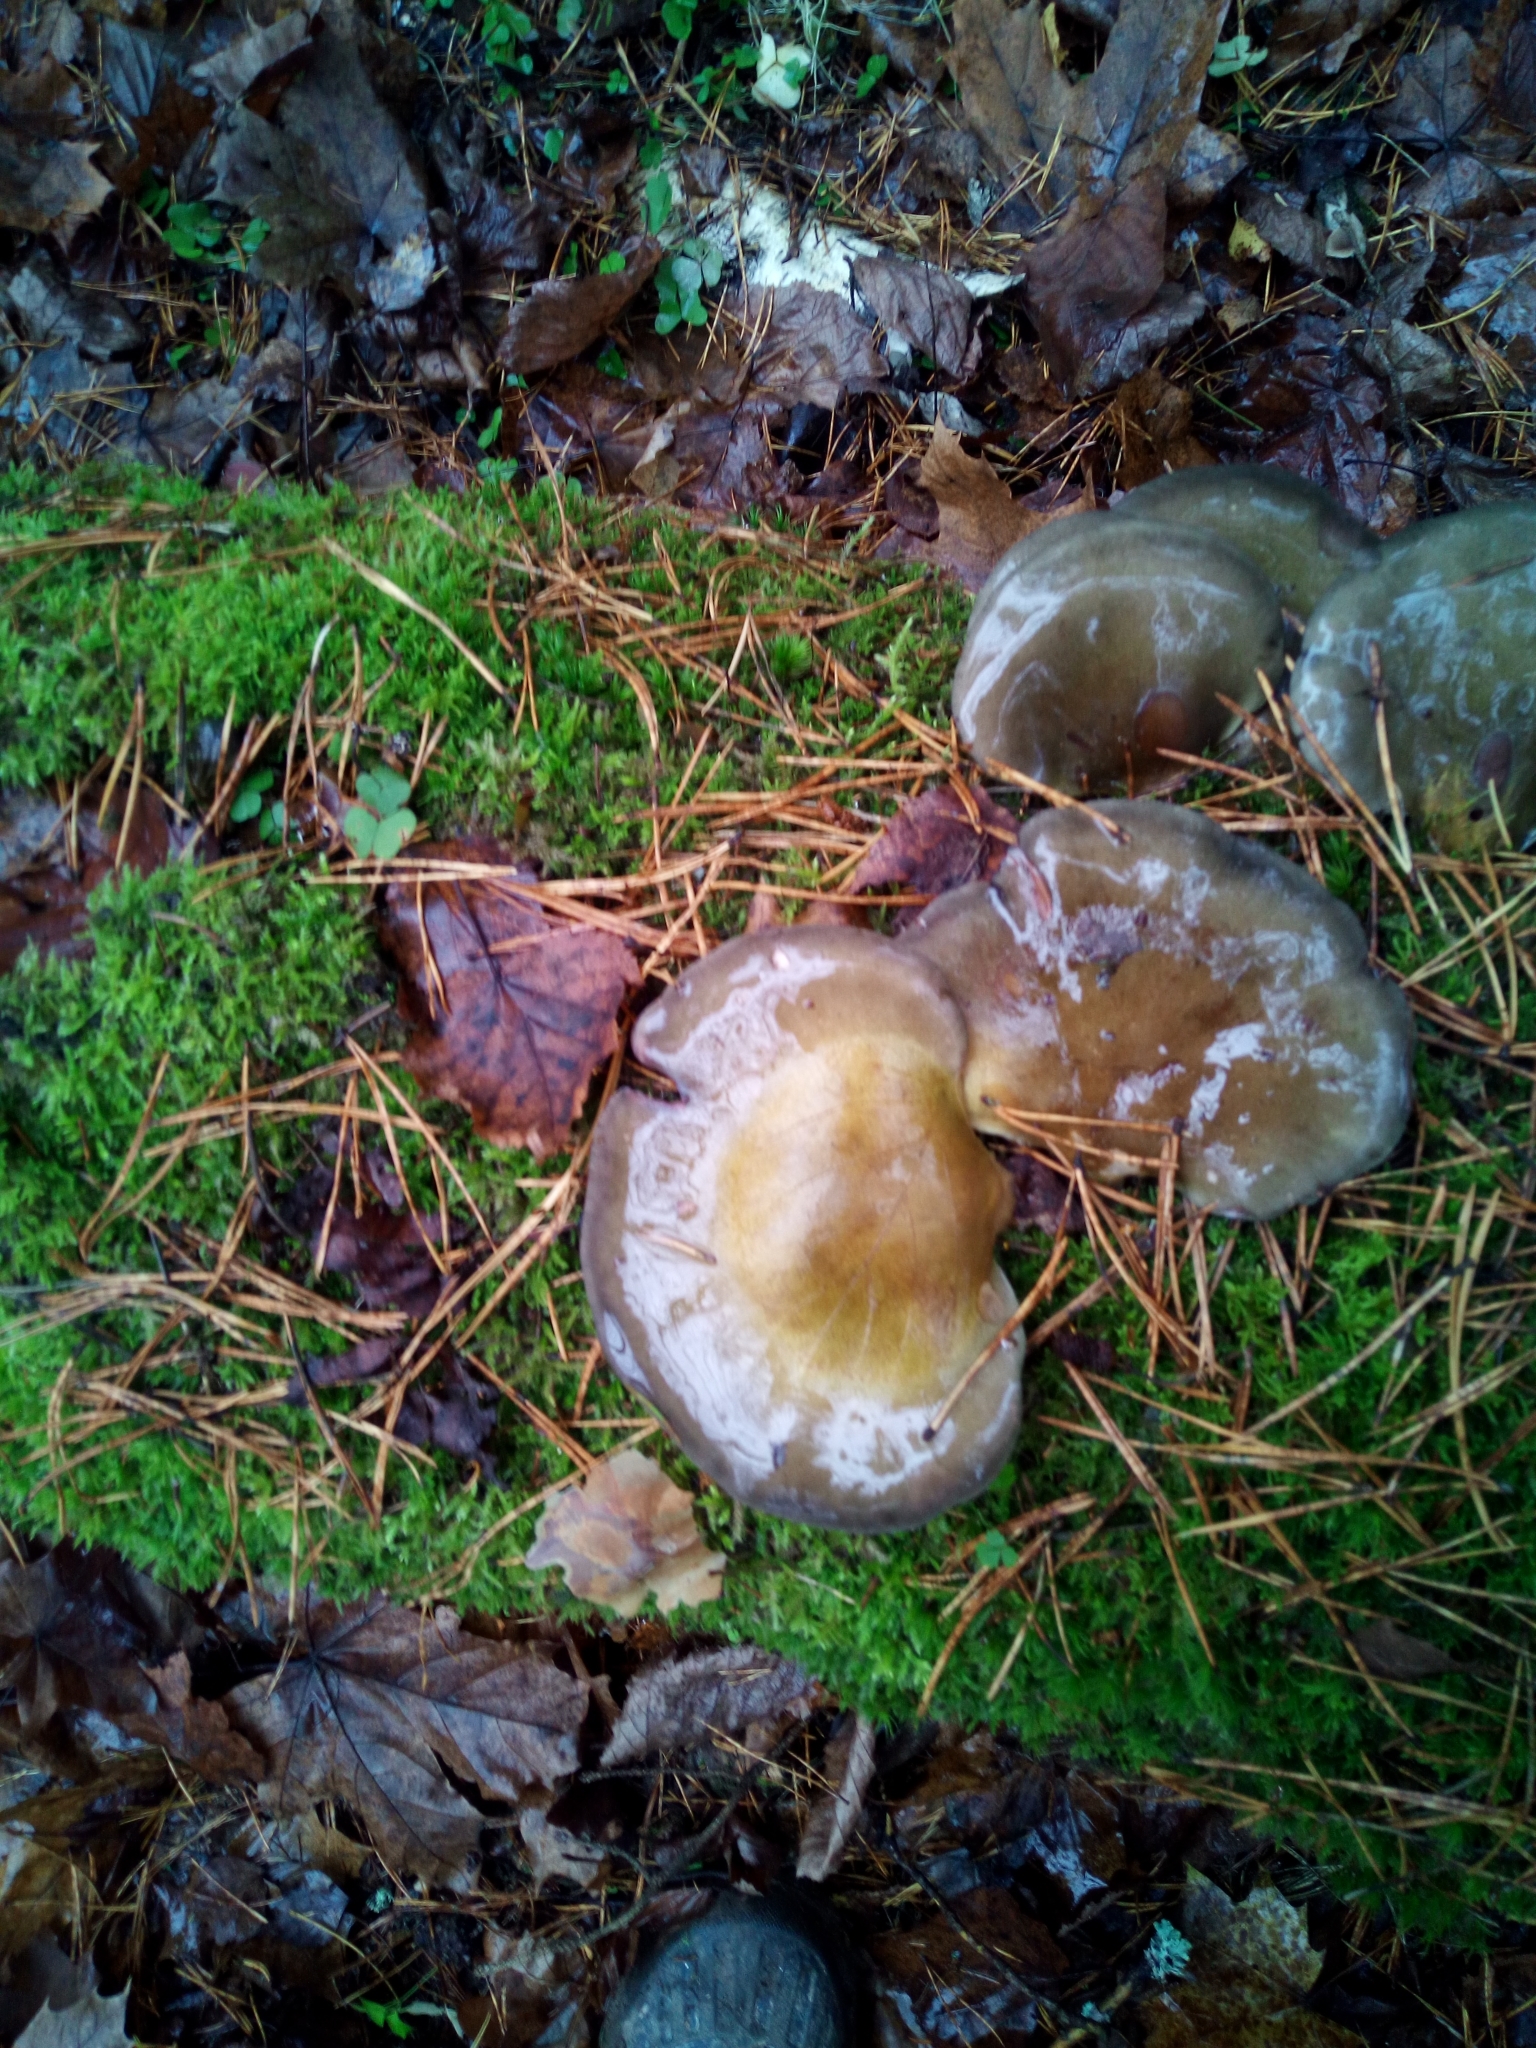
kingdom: Fungi
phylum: Basidiomycota
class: Agaricomycetes
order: Agaricales
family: Sarcomyxaceae
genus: Sarcomyxa
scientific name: Sarcomyxa serotina
